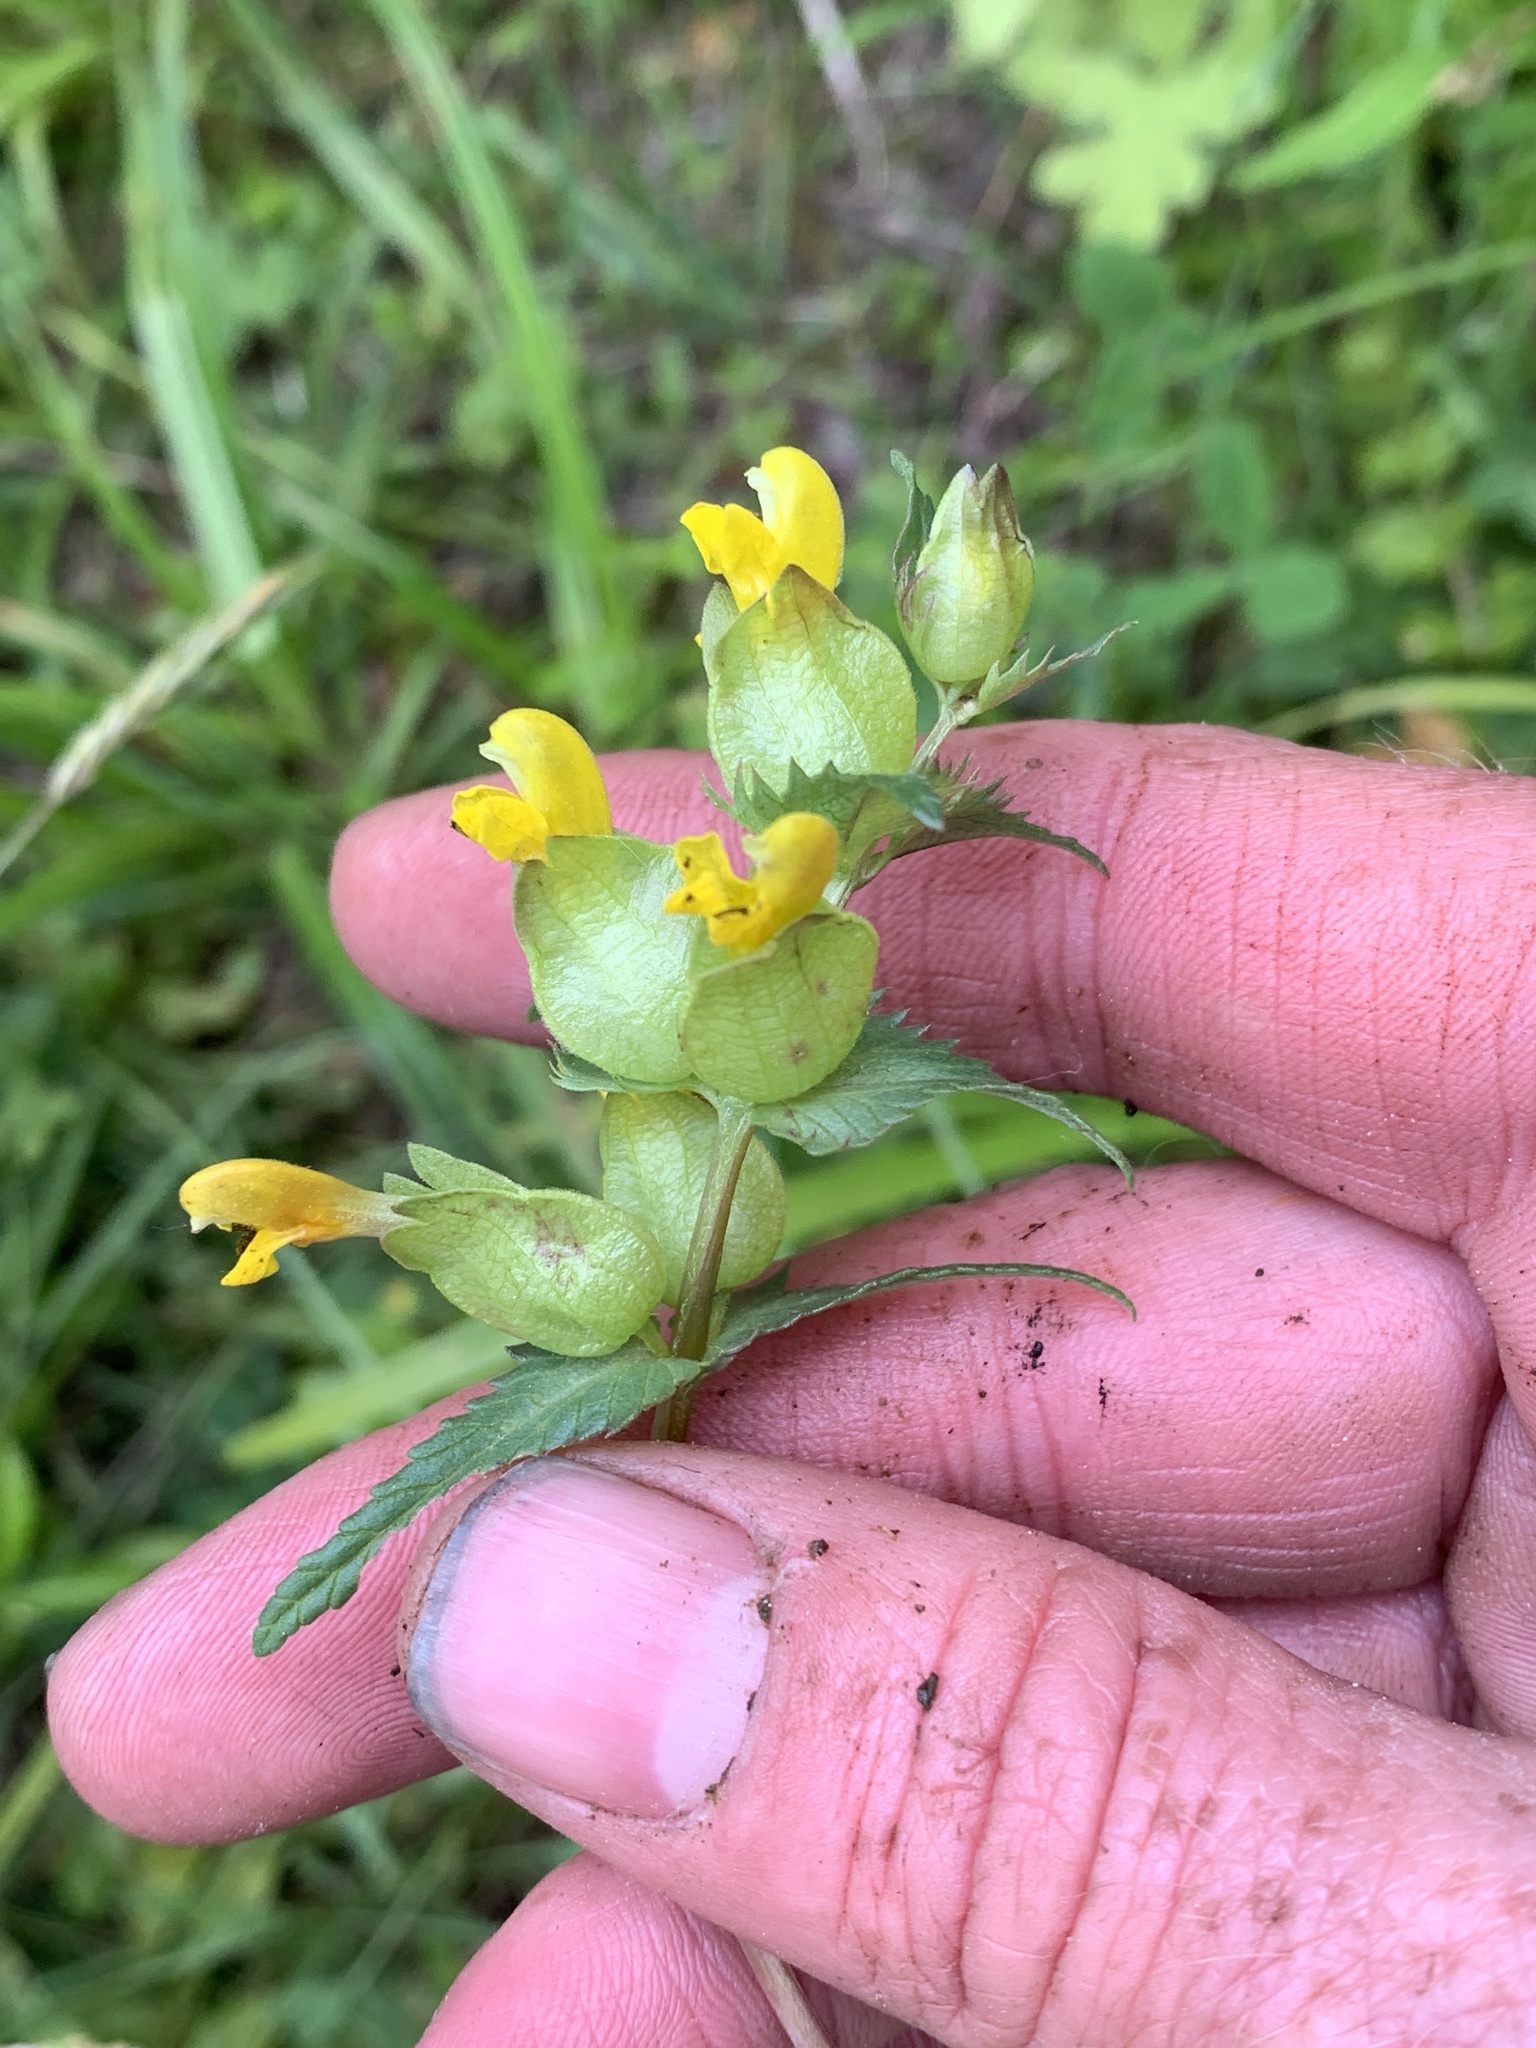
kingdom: Plantae
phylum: Tracheophyta
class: Magnoliopsida
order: Lamiales
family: Orobanchaceae
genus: Rhinanthus
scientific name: Rhinanthus minor
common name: Yellow-rattle
